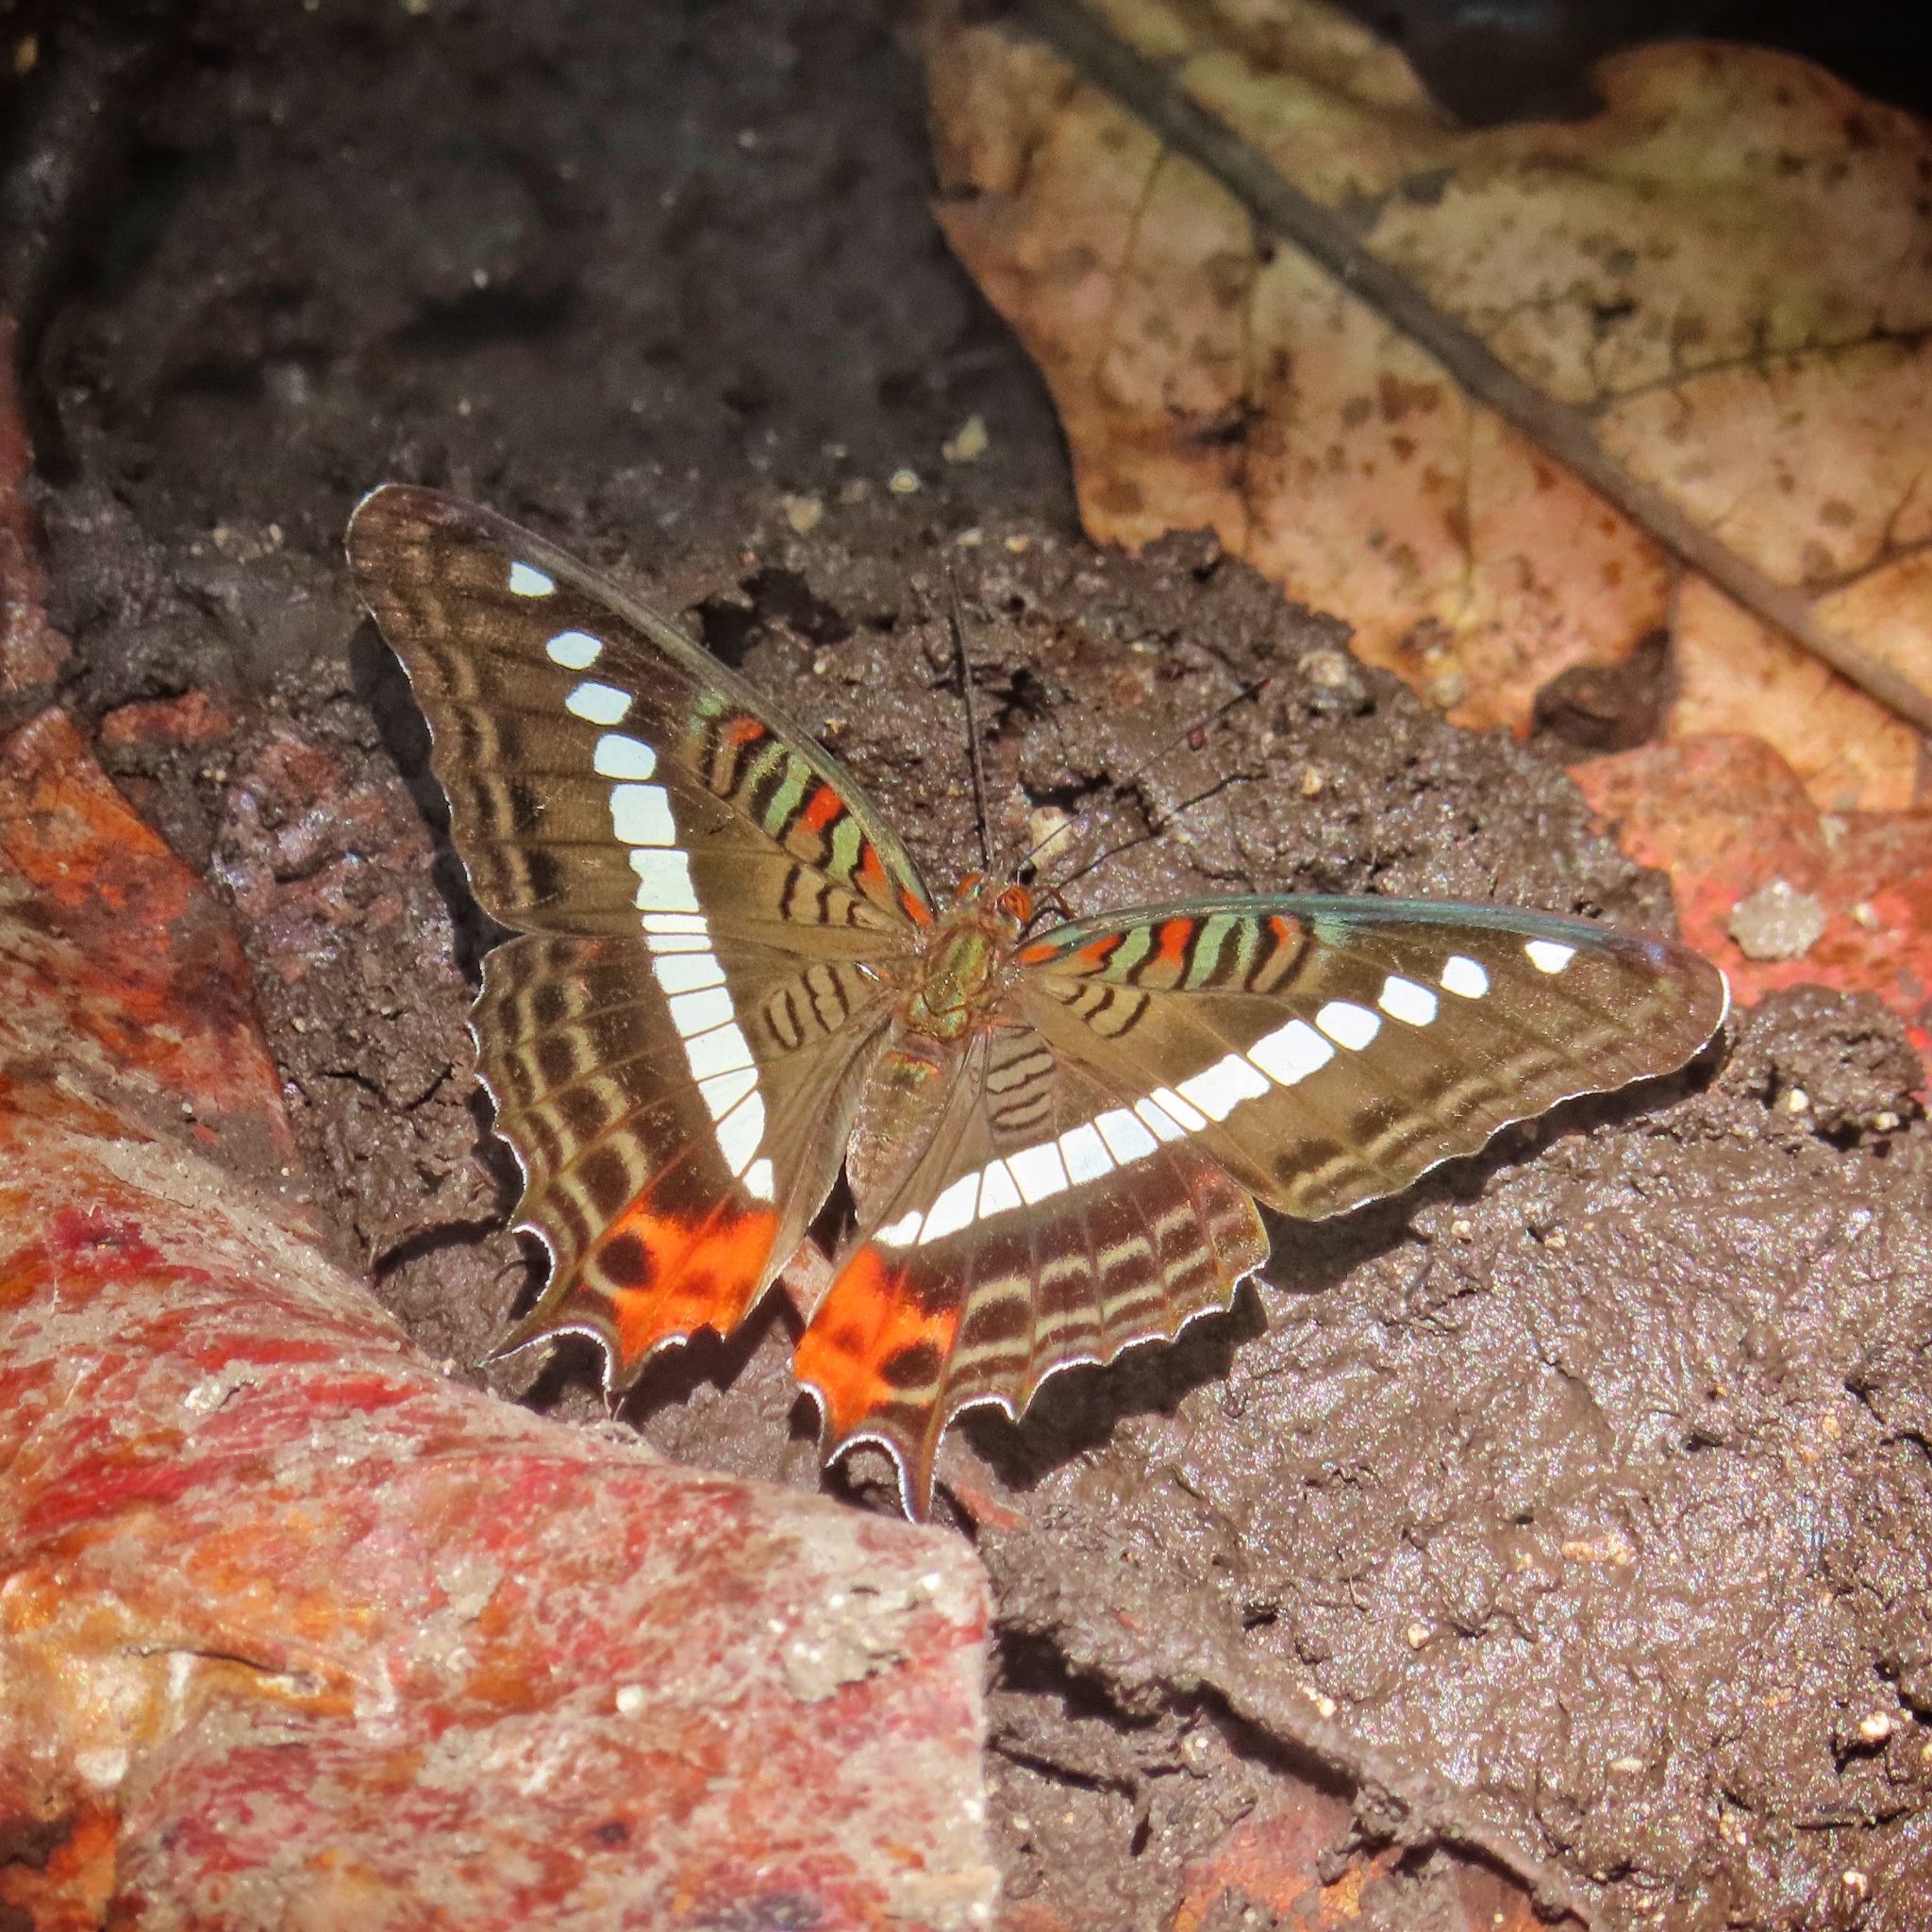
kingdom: Animalia
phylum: Arthropoda
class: Insecta
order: Lepidoptera
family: Nymphalidae
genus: Limenitis
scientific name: Limenitis gelania
